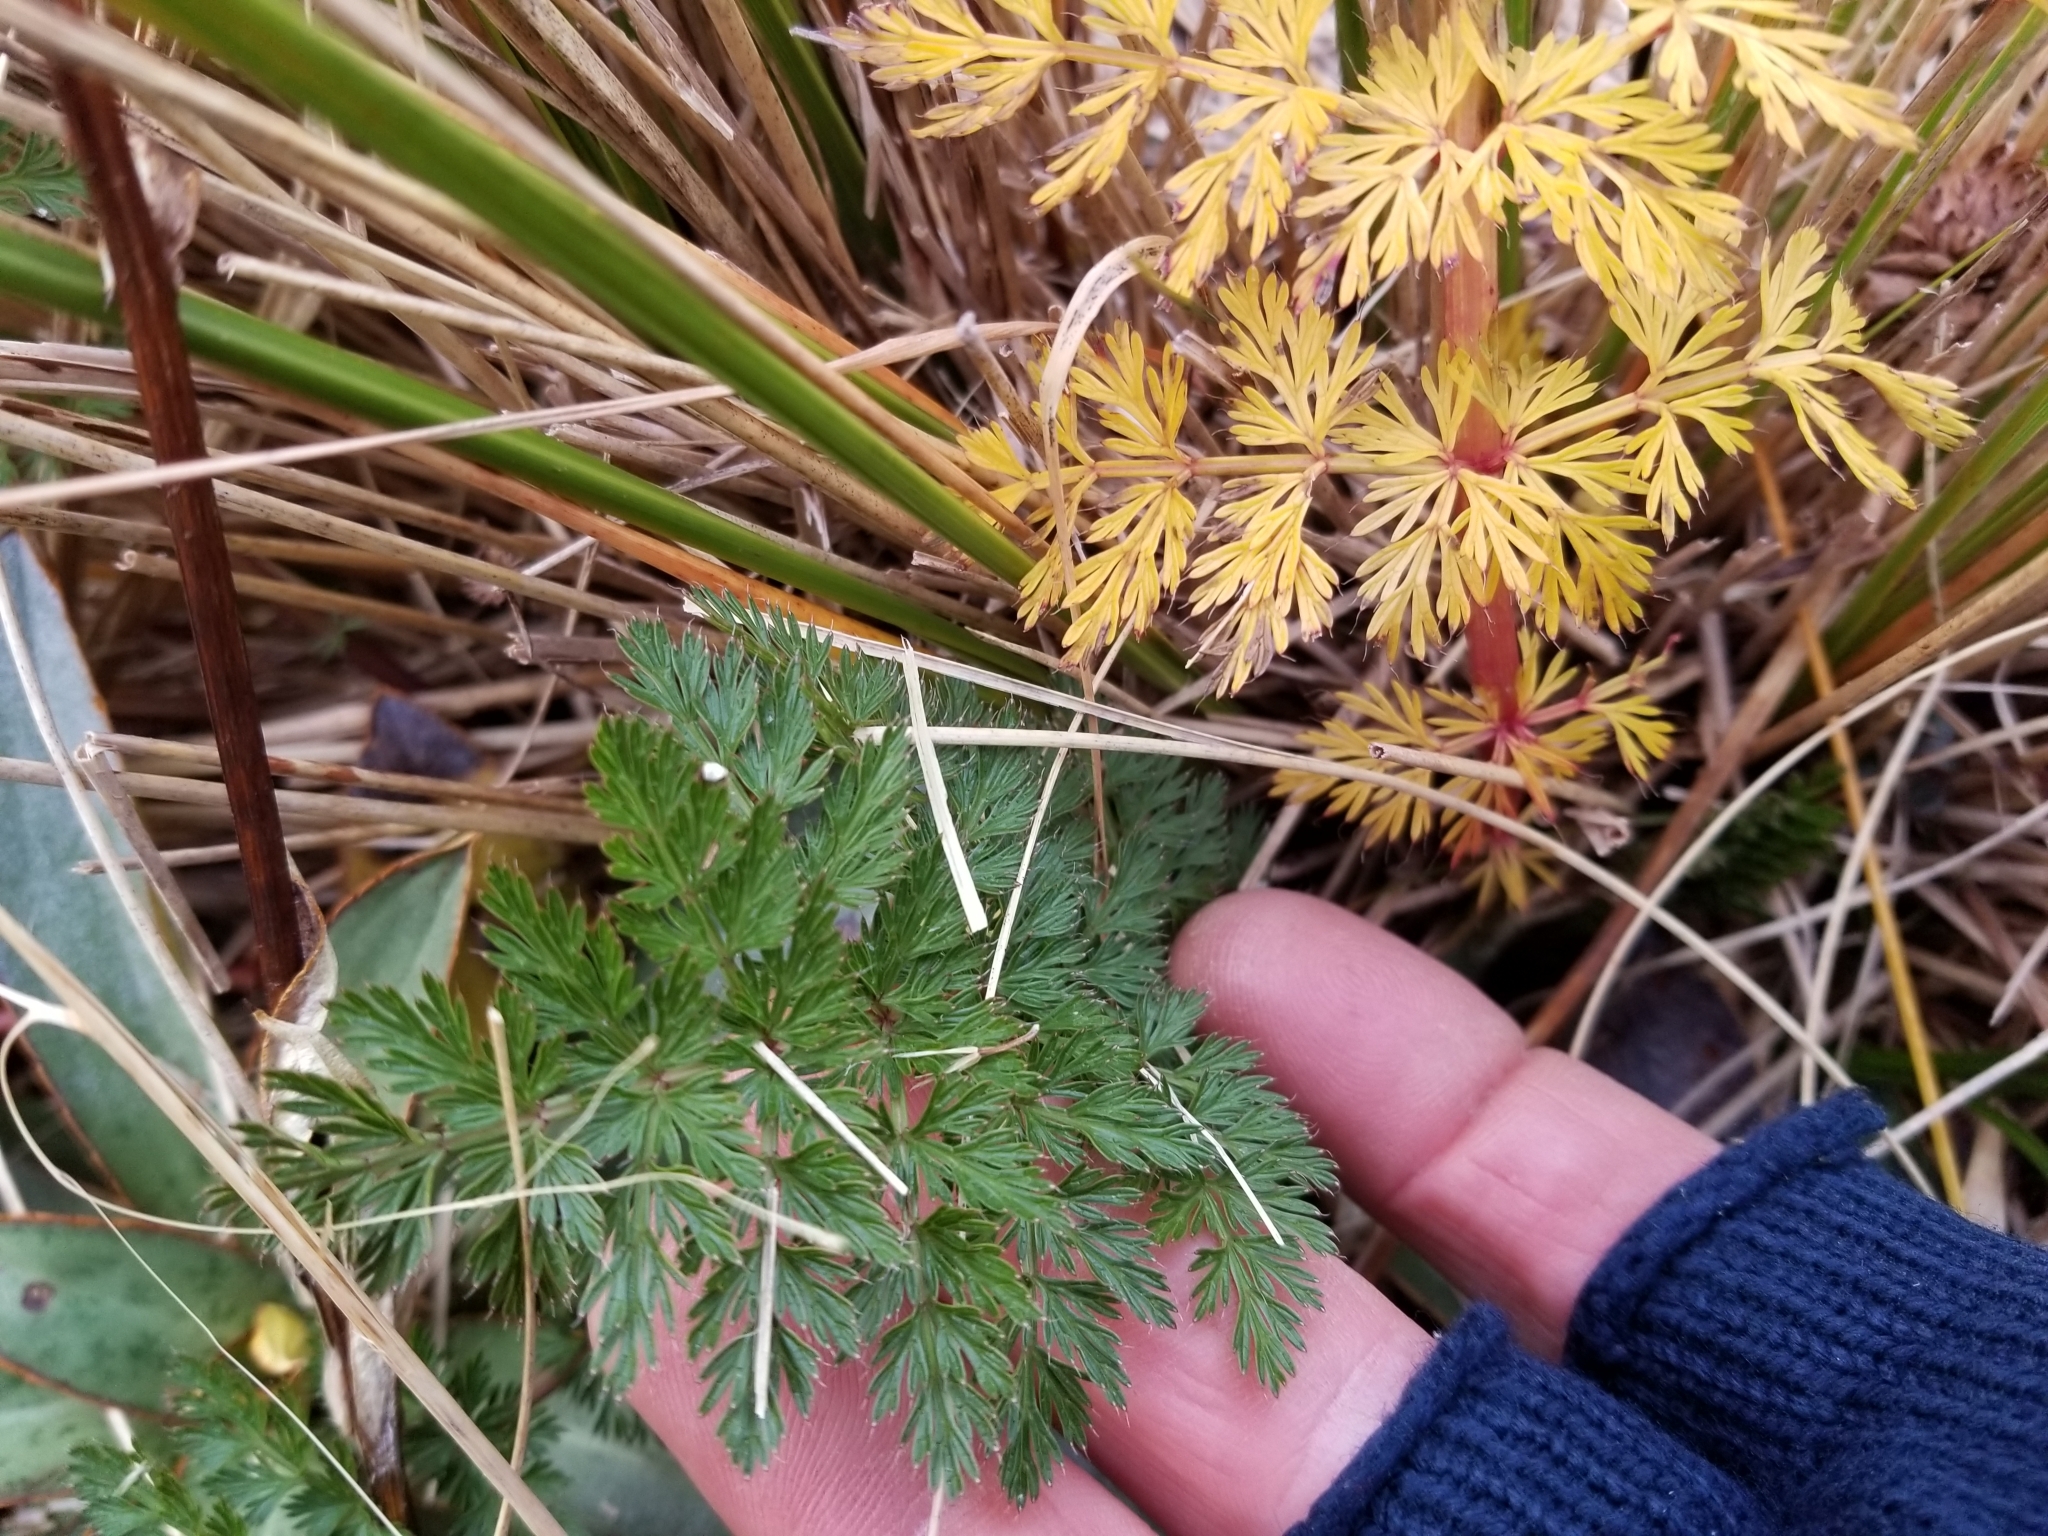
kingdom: Plantae
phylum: Tracheophyta
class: Magnoliopsida
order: Apiales
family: Apiaceae
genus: Anisotome
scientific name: Anisotome haastii
